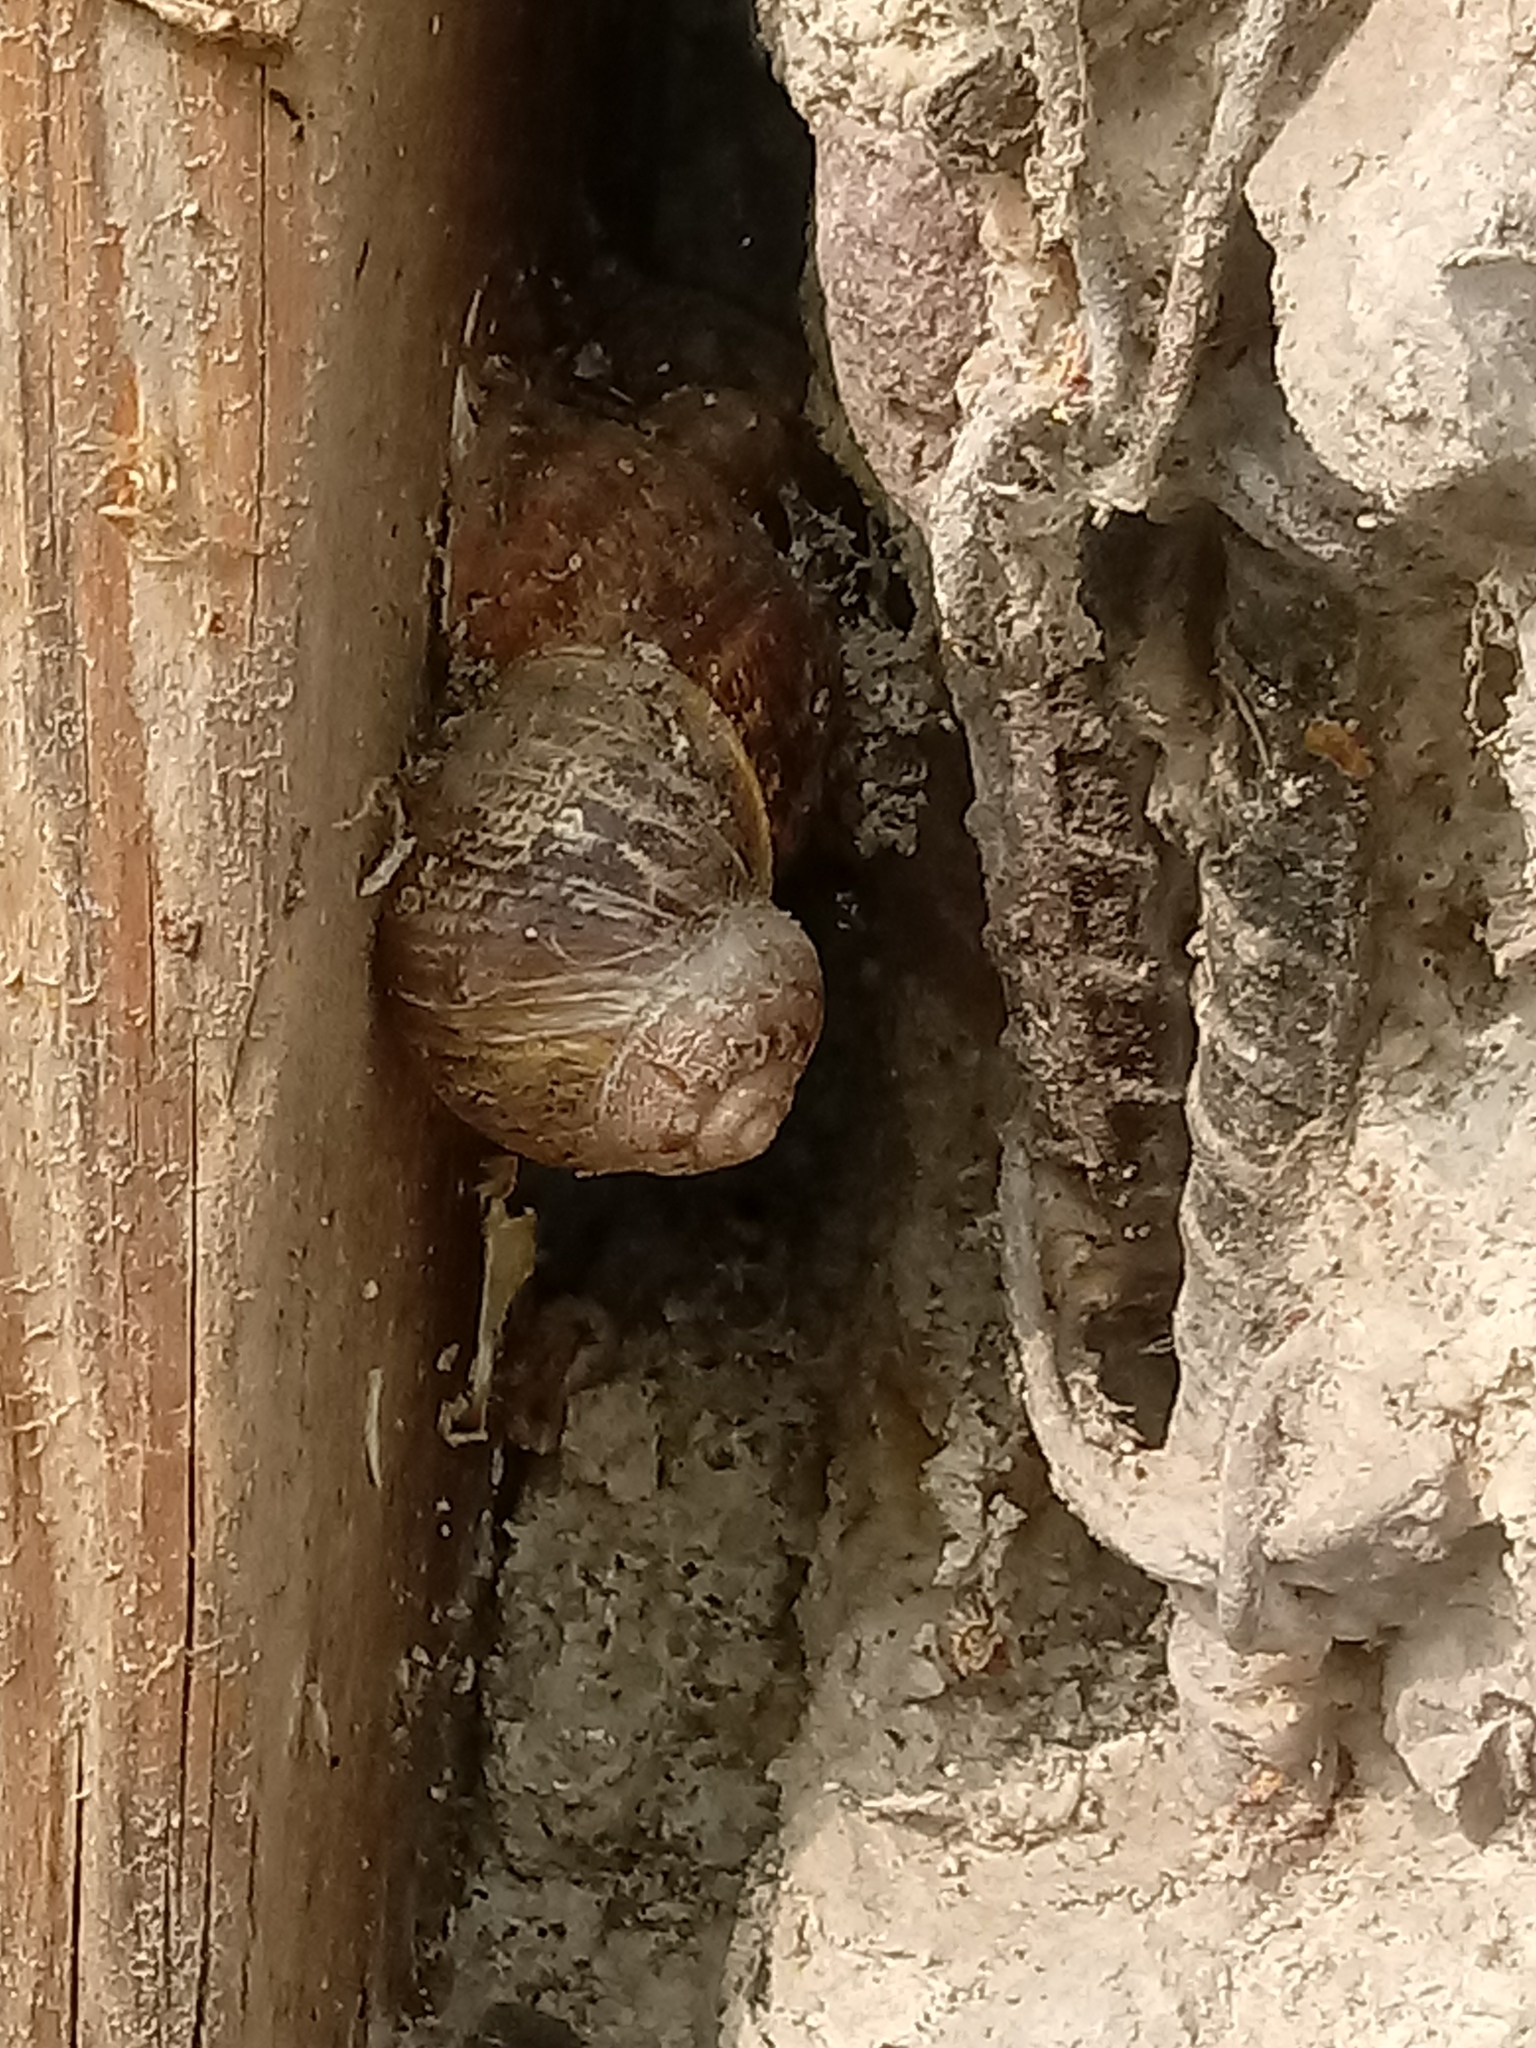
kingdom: Animalia
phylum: Mollusca
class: Gastropoda
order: Stylommatophora
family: Helicidae
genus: Cornu
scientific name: Cornu aspersum
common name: Brown garden snail
